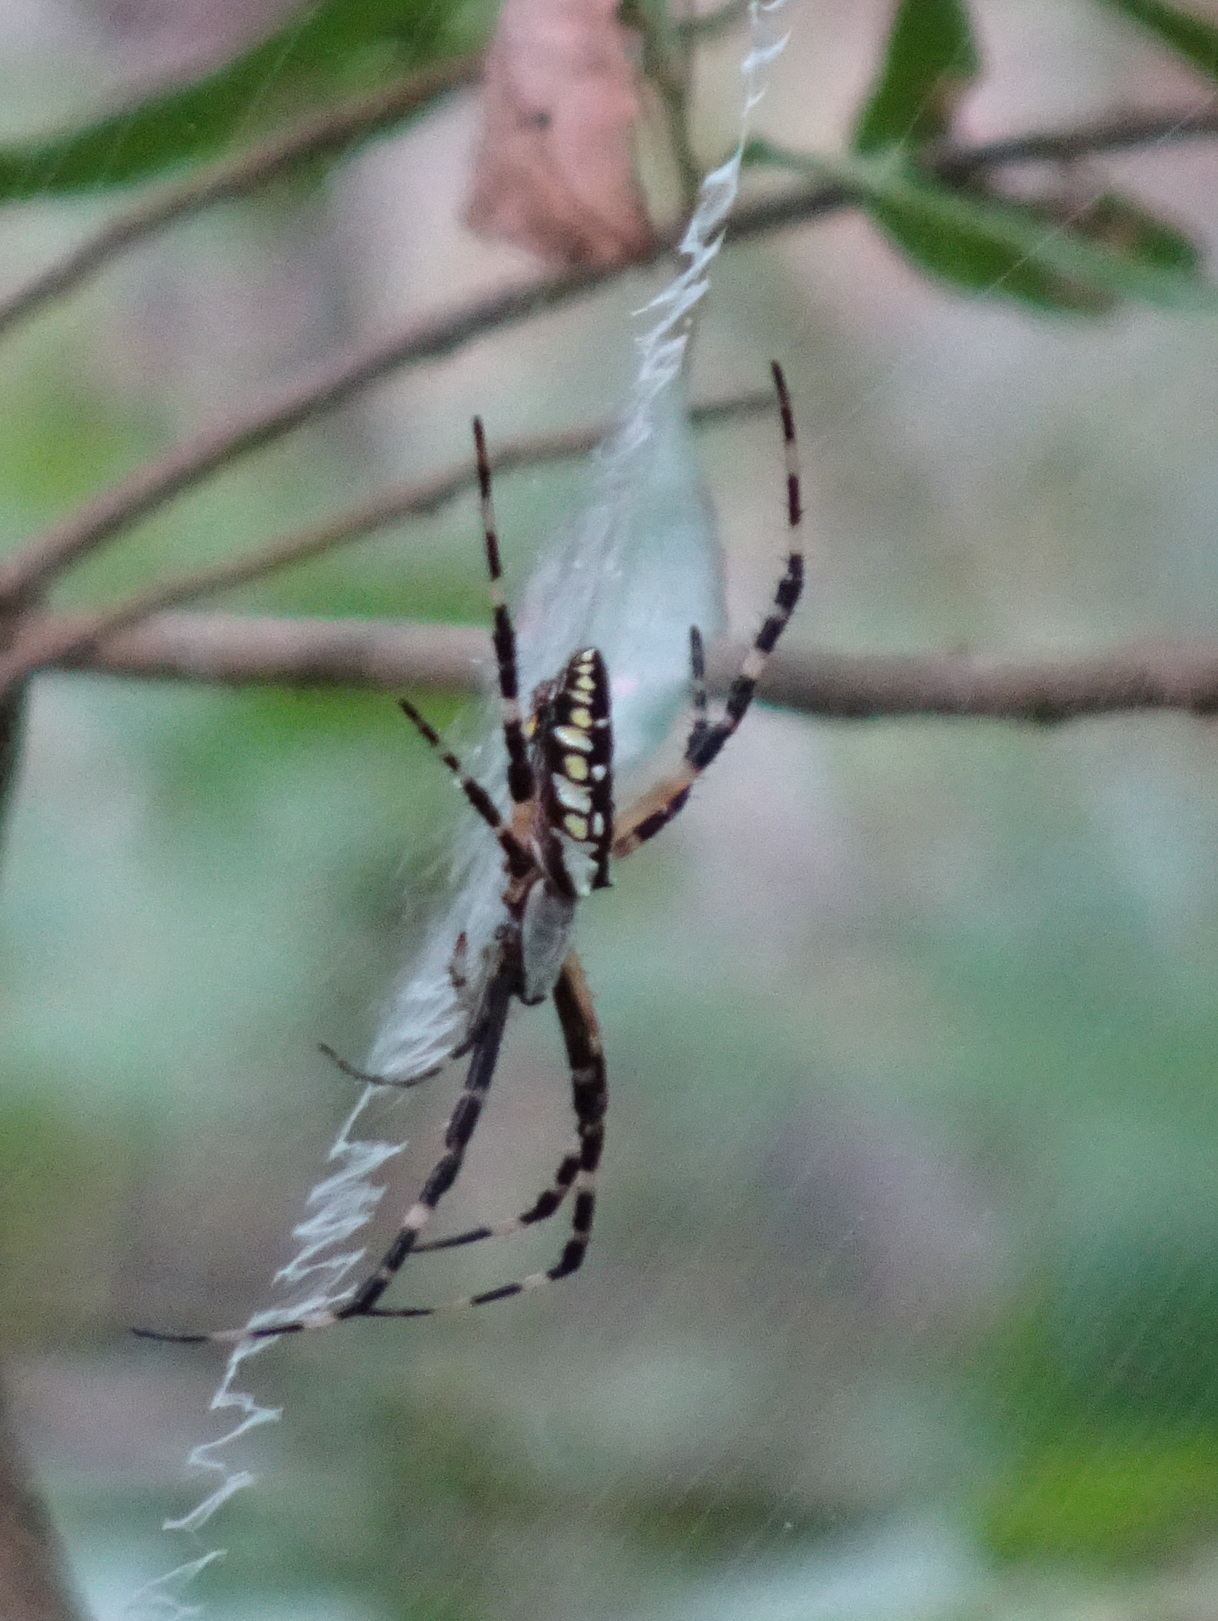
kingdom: Animalia
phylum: Arthropoda
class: Arachnida
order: Araneae
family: Araneidae
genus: Argiope
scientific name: Argiope aurantia
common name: Orb weavers
